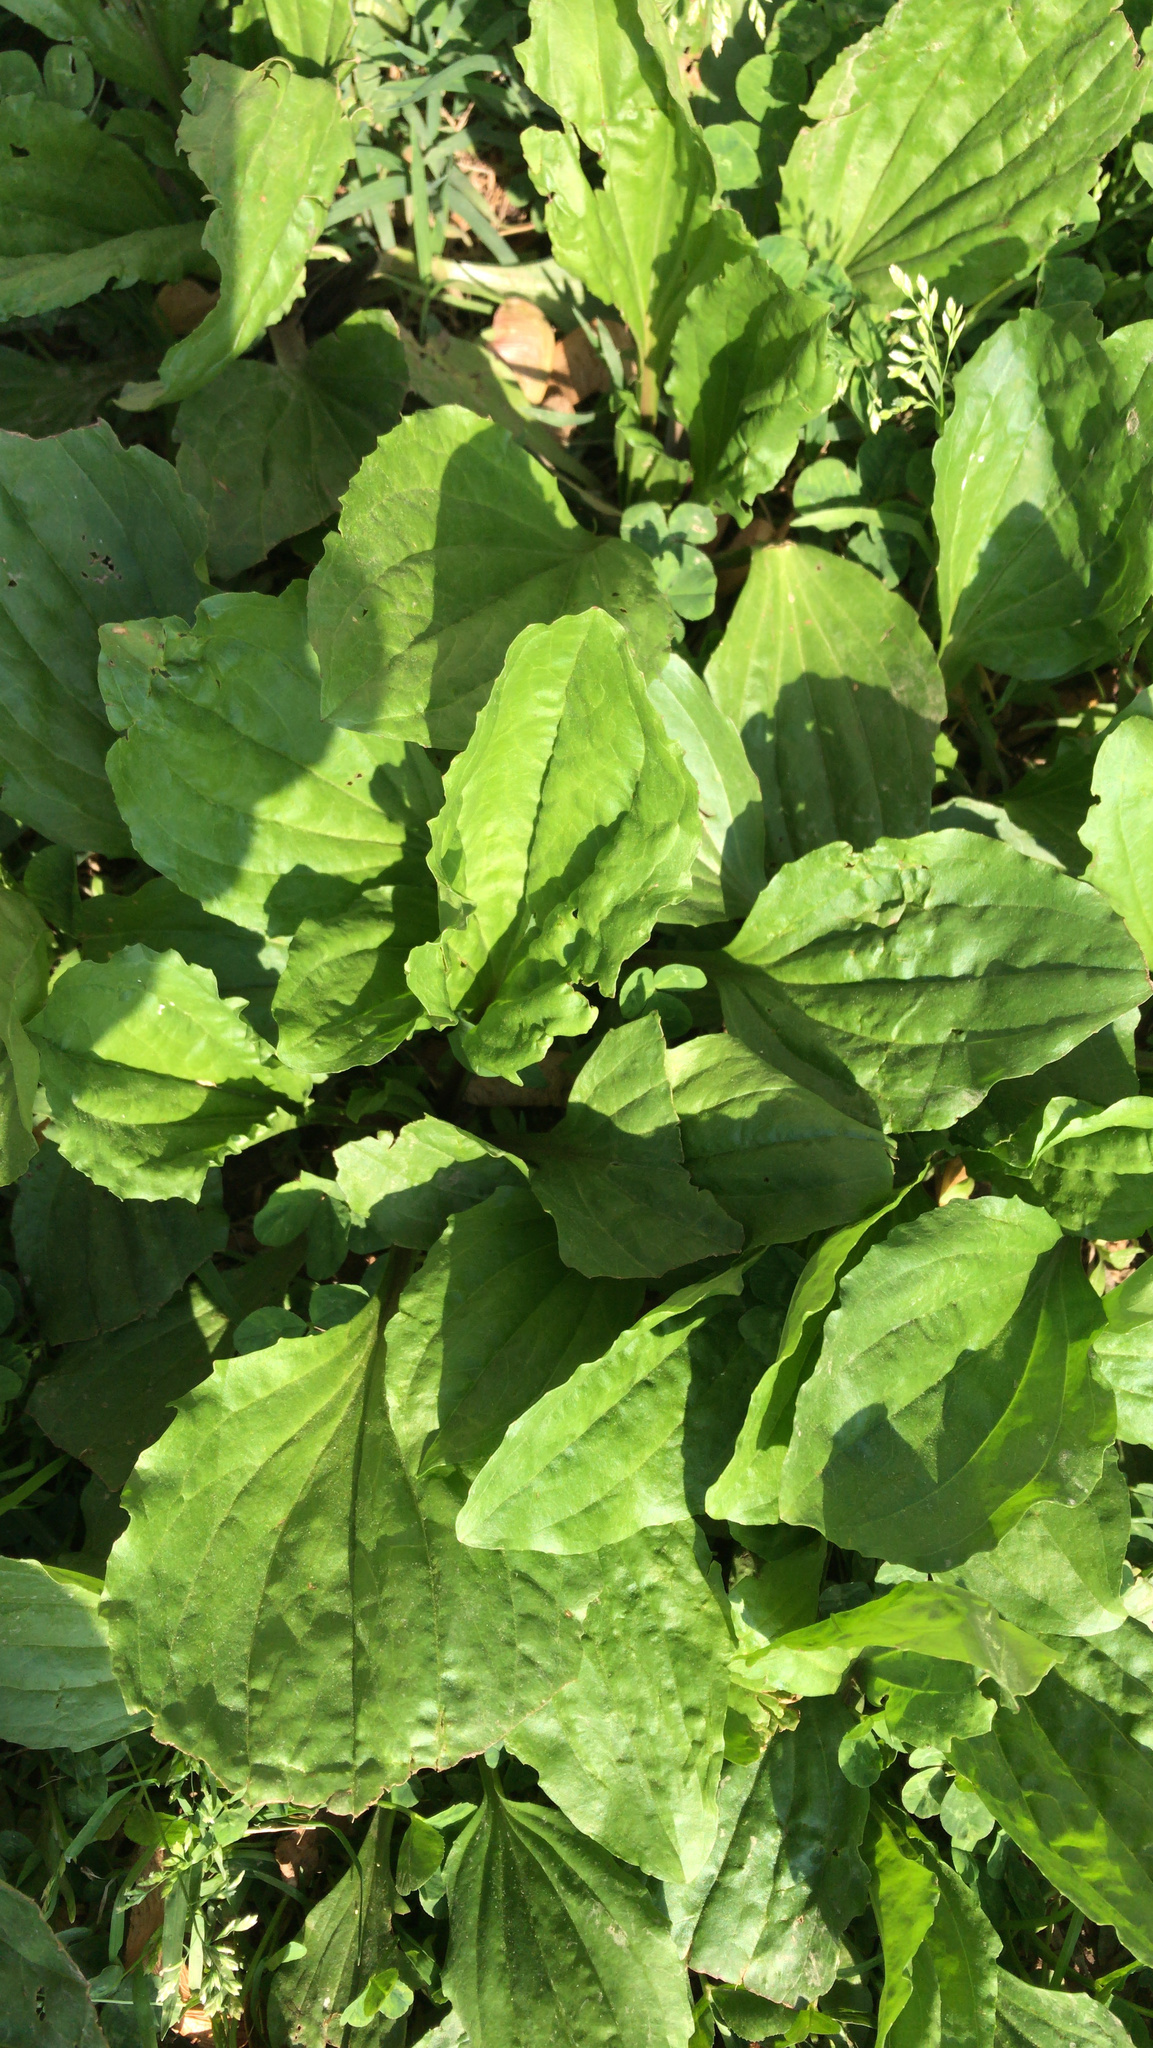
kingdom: Plantae
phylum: Tracheophyta
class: Magnoliopsida
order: Lamiales
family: Plantaginaceae
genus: Plantago
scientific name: Plantago rugelii
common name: American plantain
